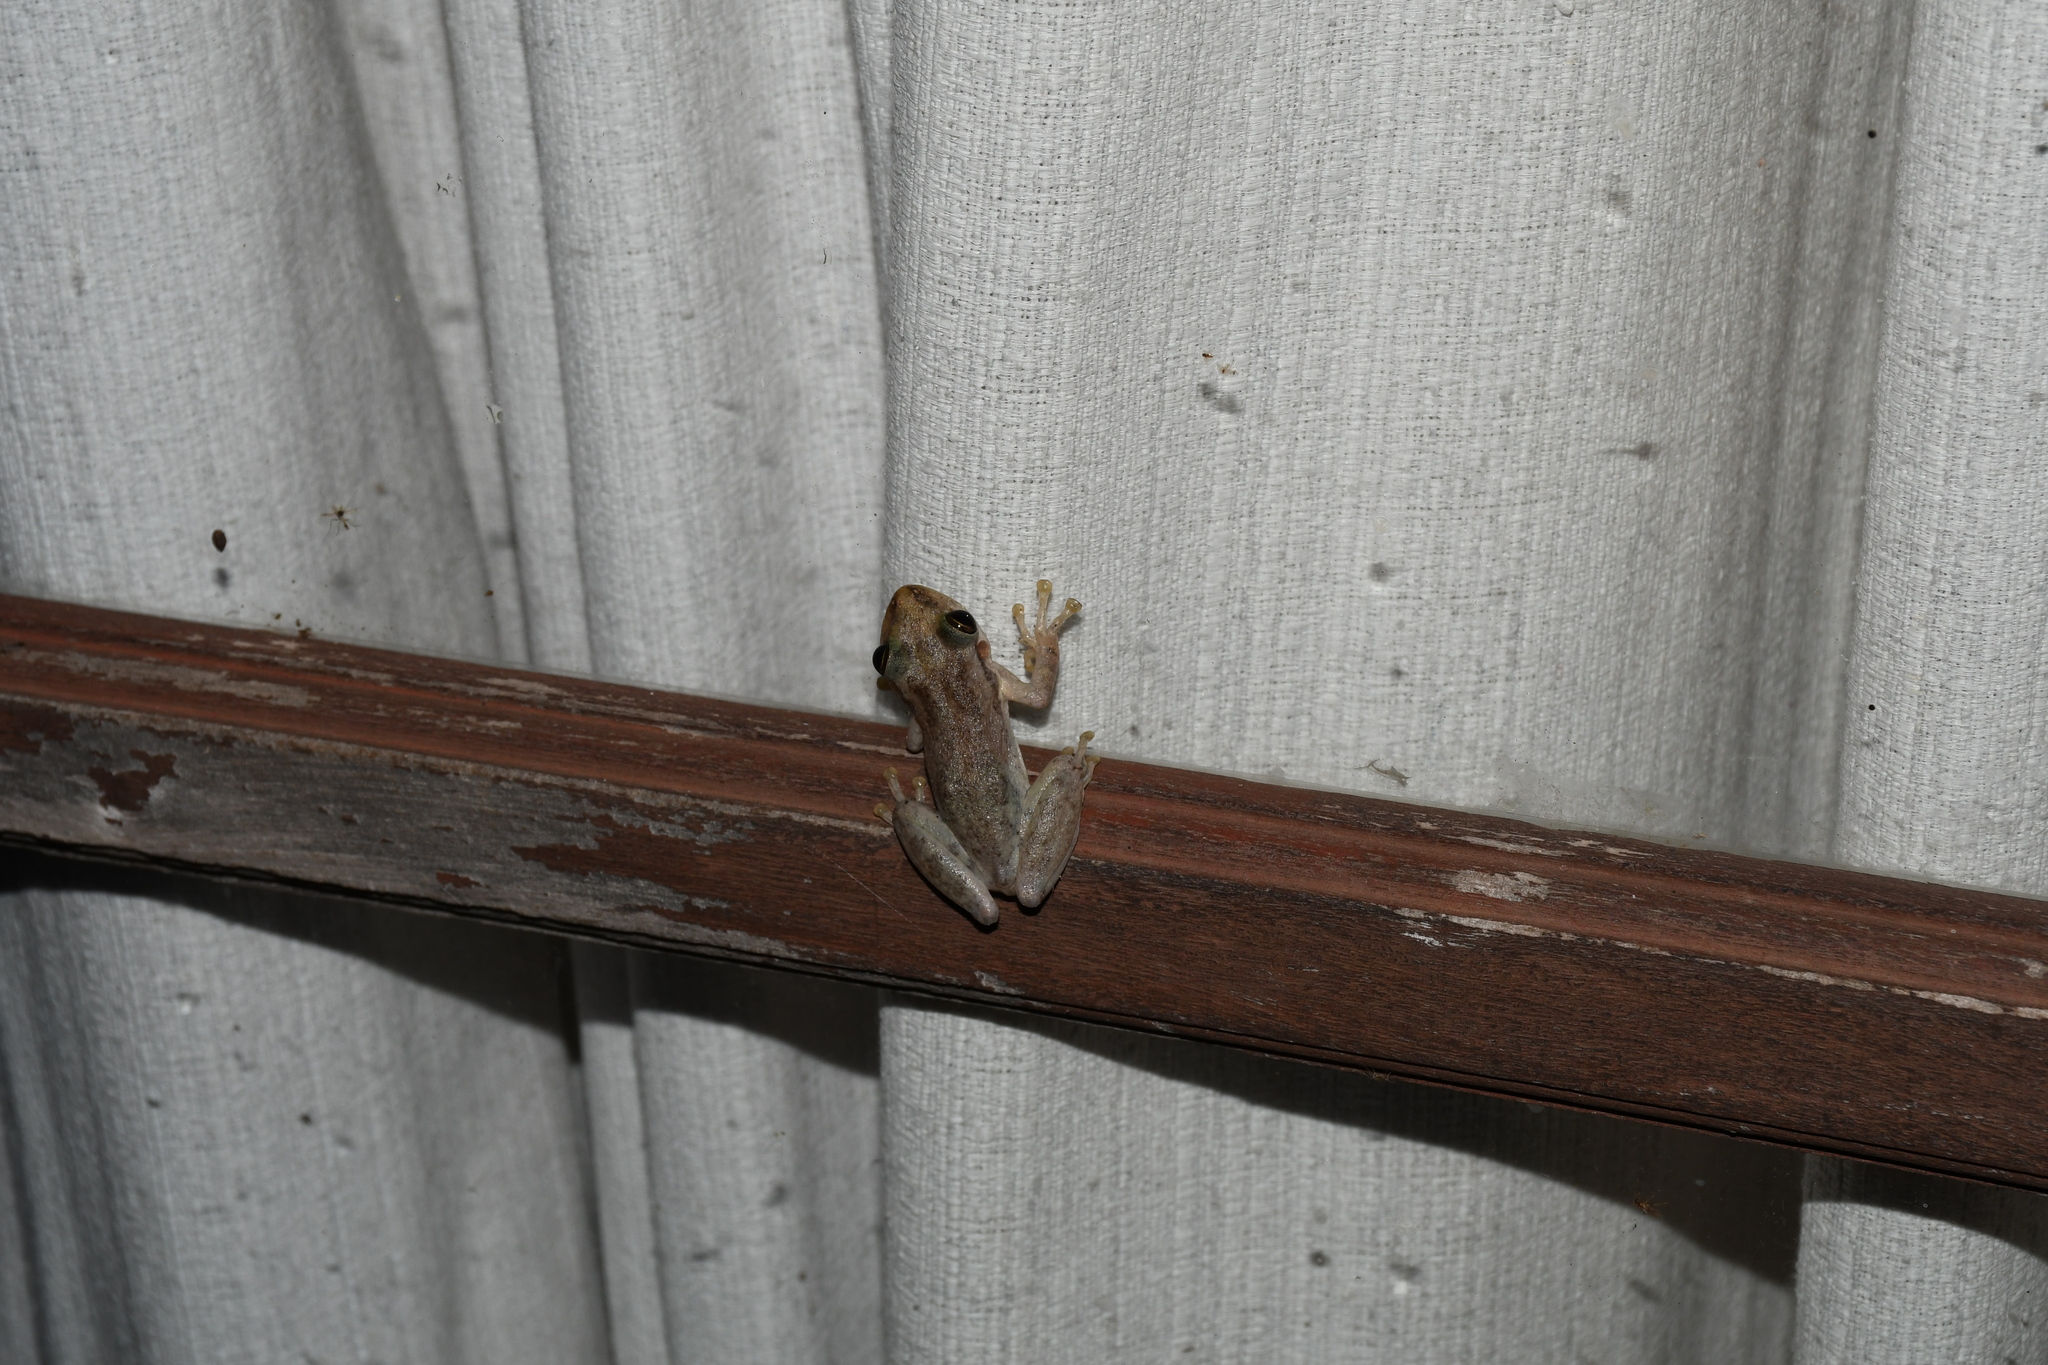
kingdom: Animalia
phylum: Chordata
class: Amphibia
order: Anura
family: Hylidae
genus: Scinax
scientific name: Scinax ruber
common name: Red snouted treefrog
